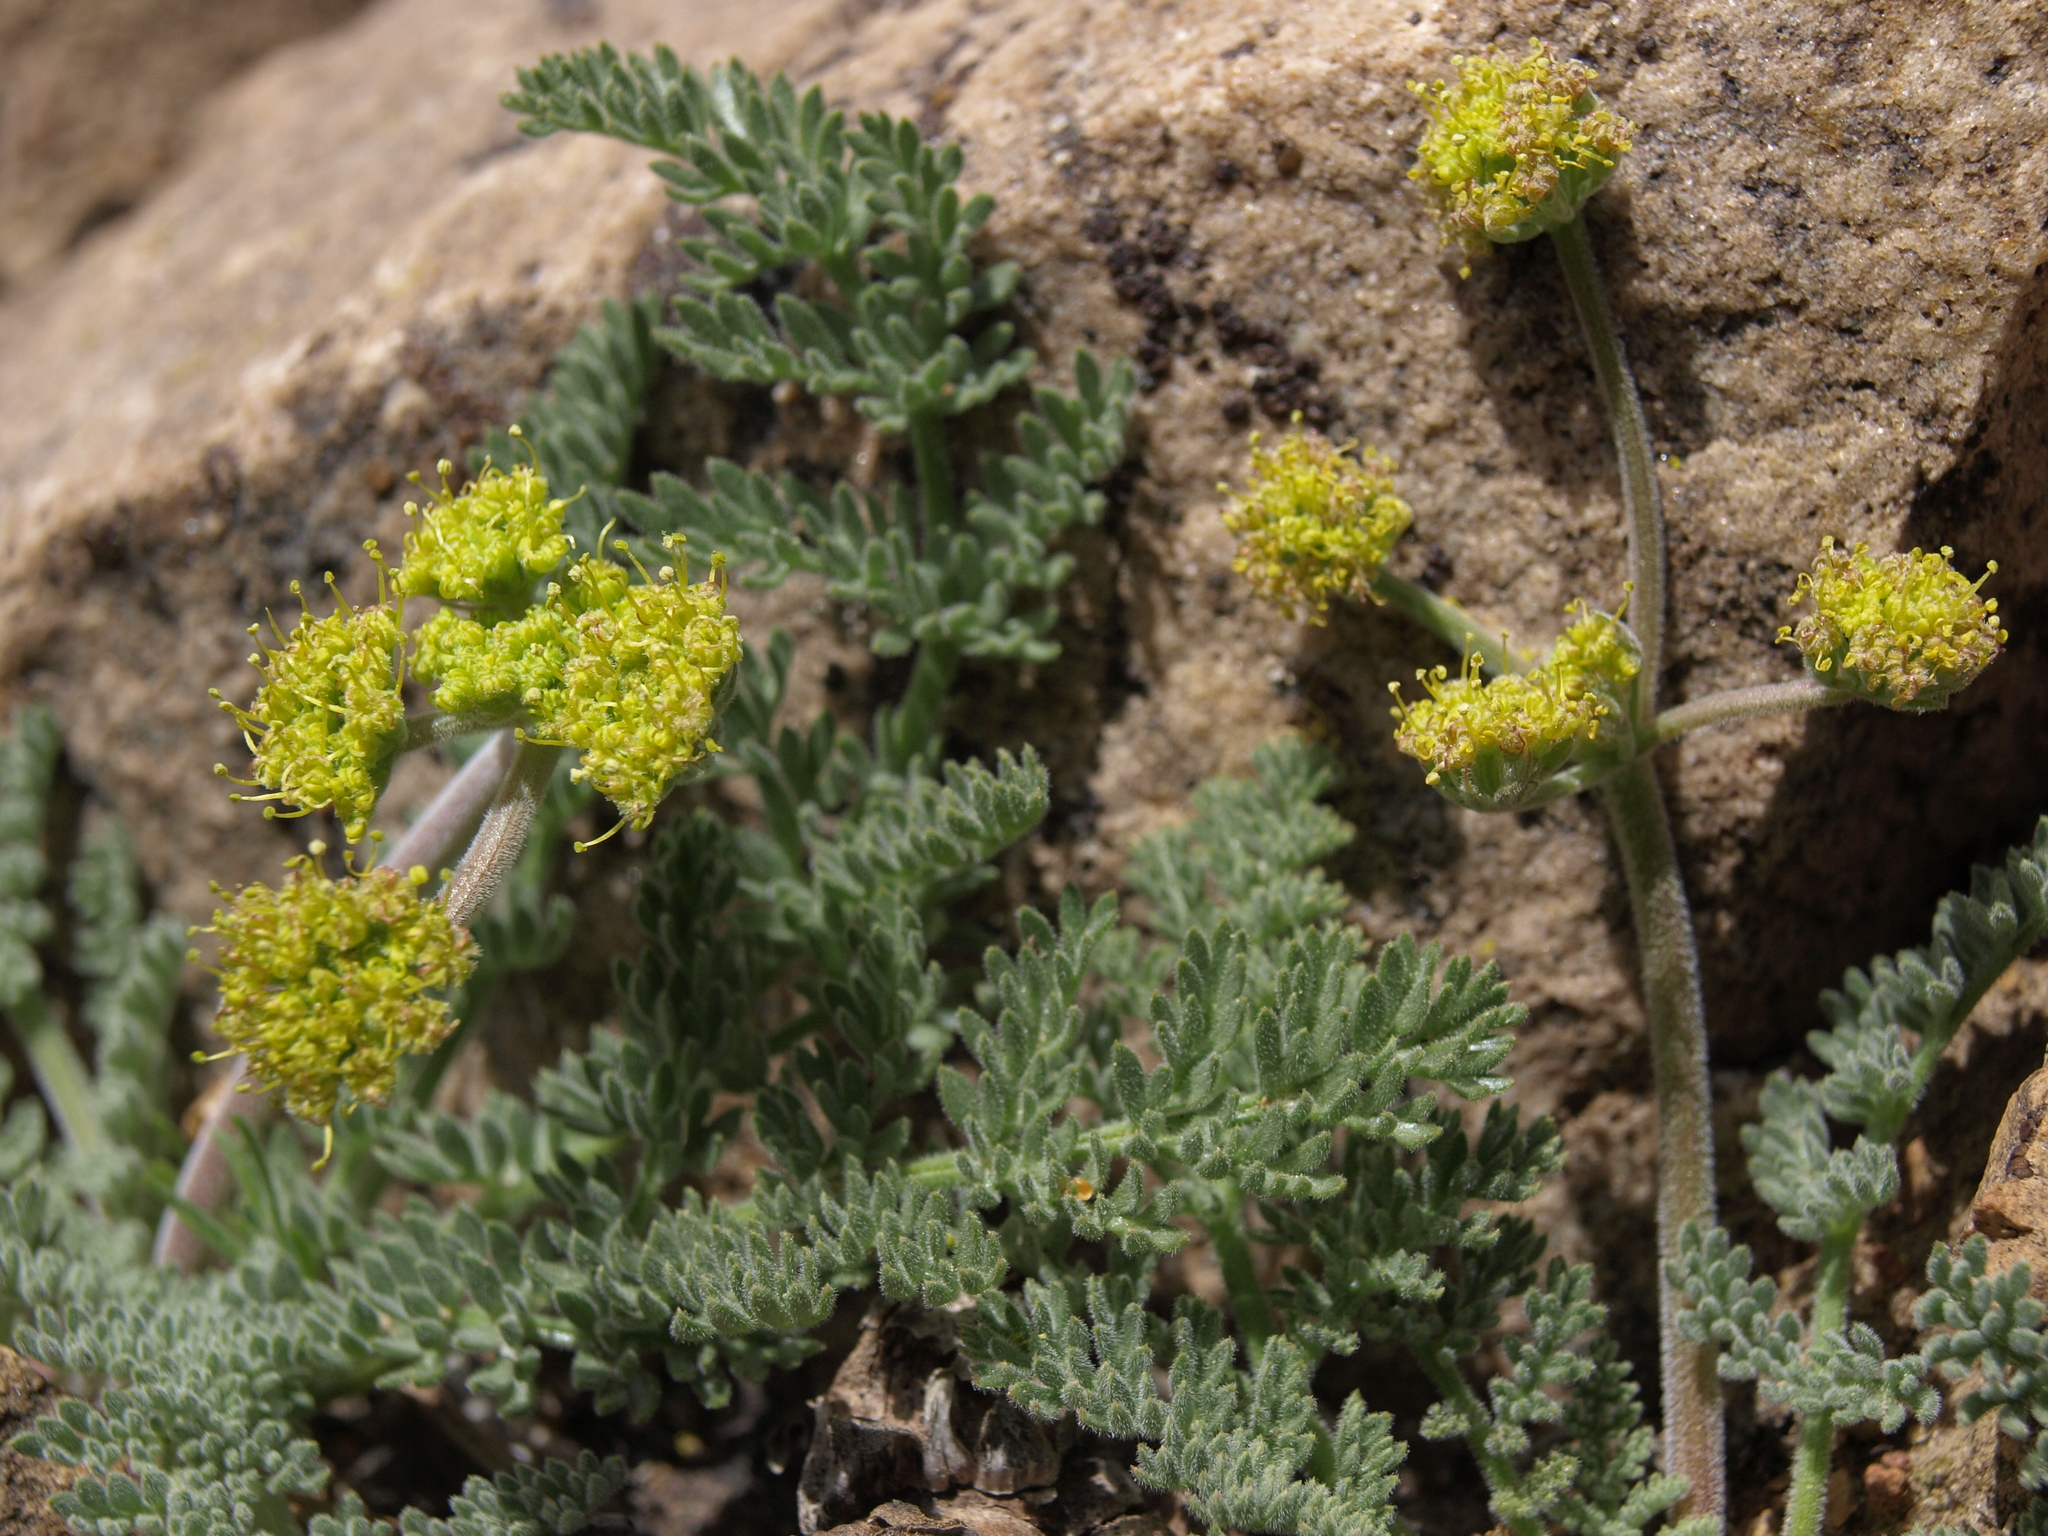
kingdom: Plantae
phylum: Tracheophyta
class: Magnoliopsida
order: Apiales
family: Apiaceae
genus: Lomatium
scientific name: Lomatium foeniculaceum
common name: Desert-parsley
